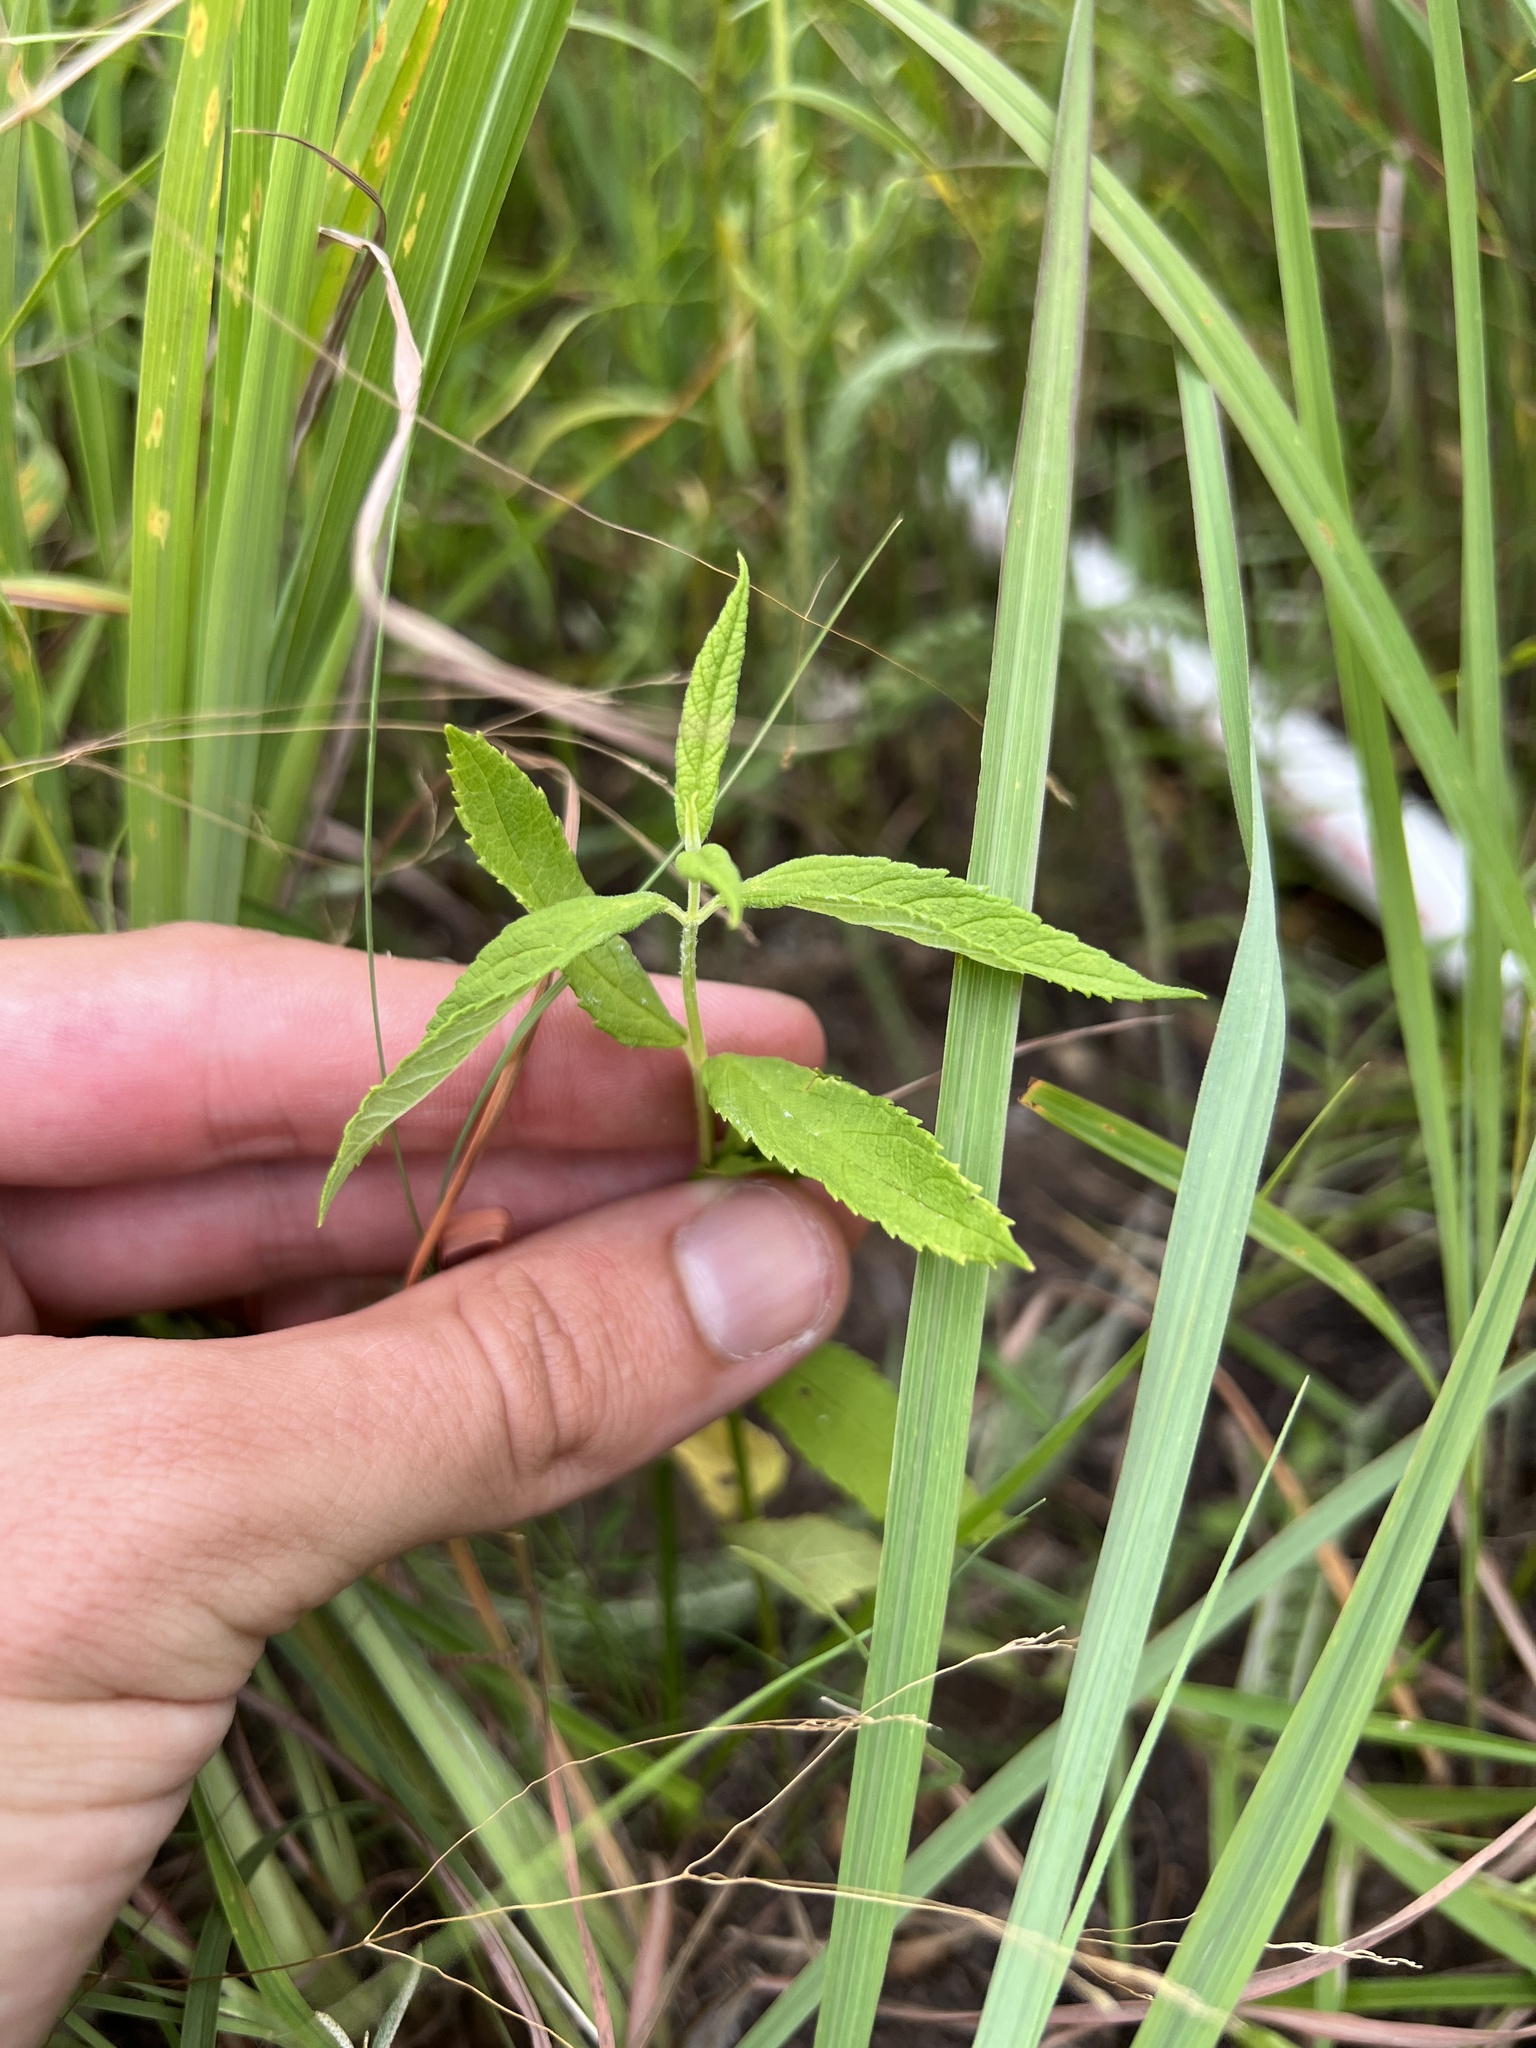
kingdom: Plantae
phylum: Tracheophyta
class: Magnoliopsida
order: Lamiales
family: Lamiaceae
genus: Teucrium
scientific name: Teucrium canadense
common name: American germander
